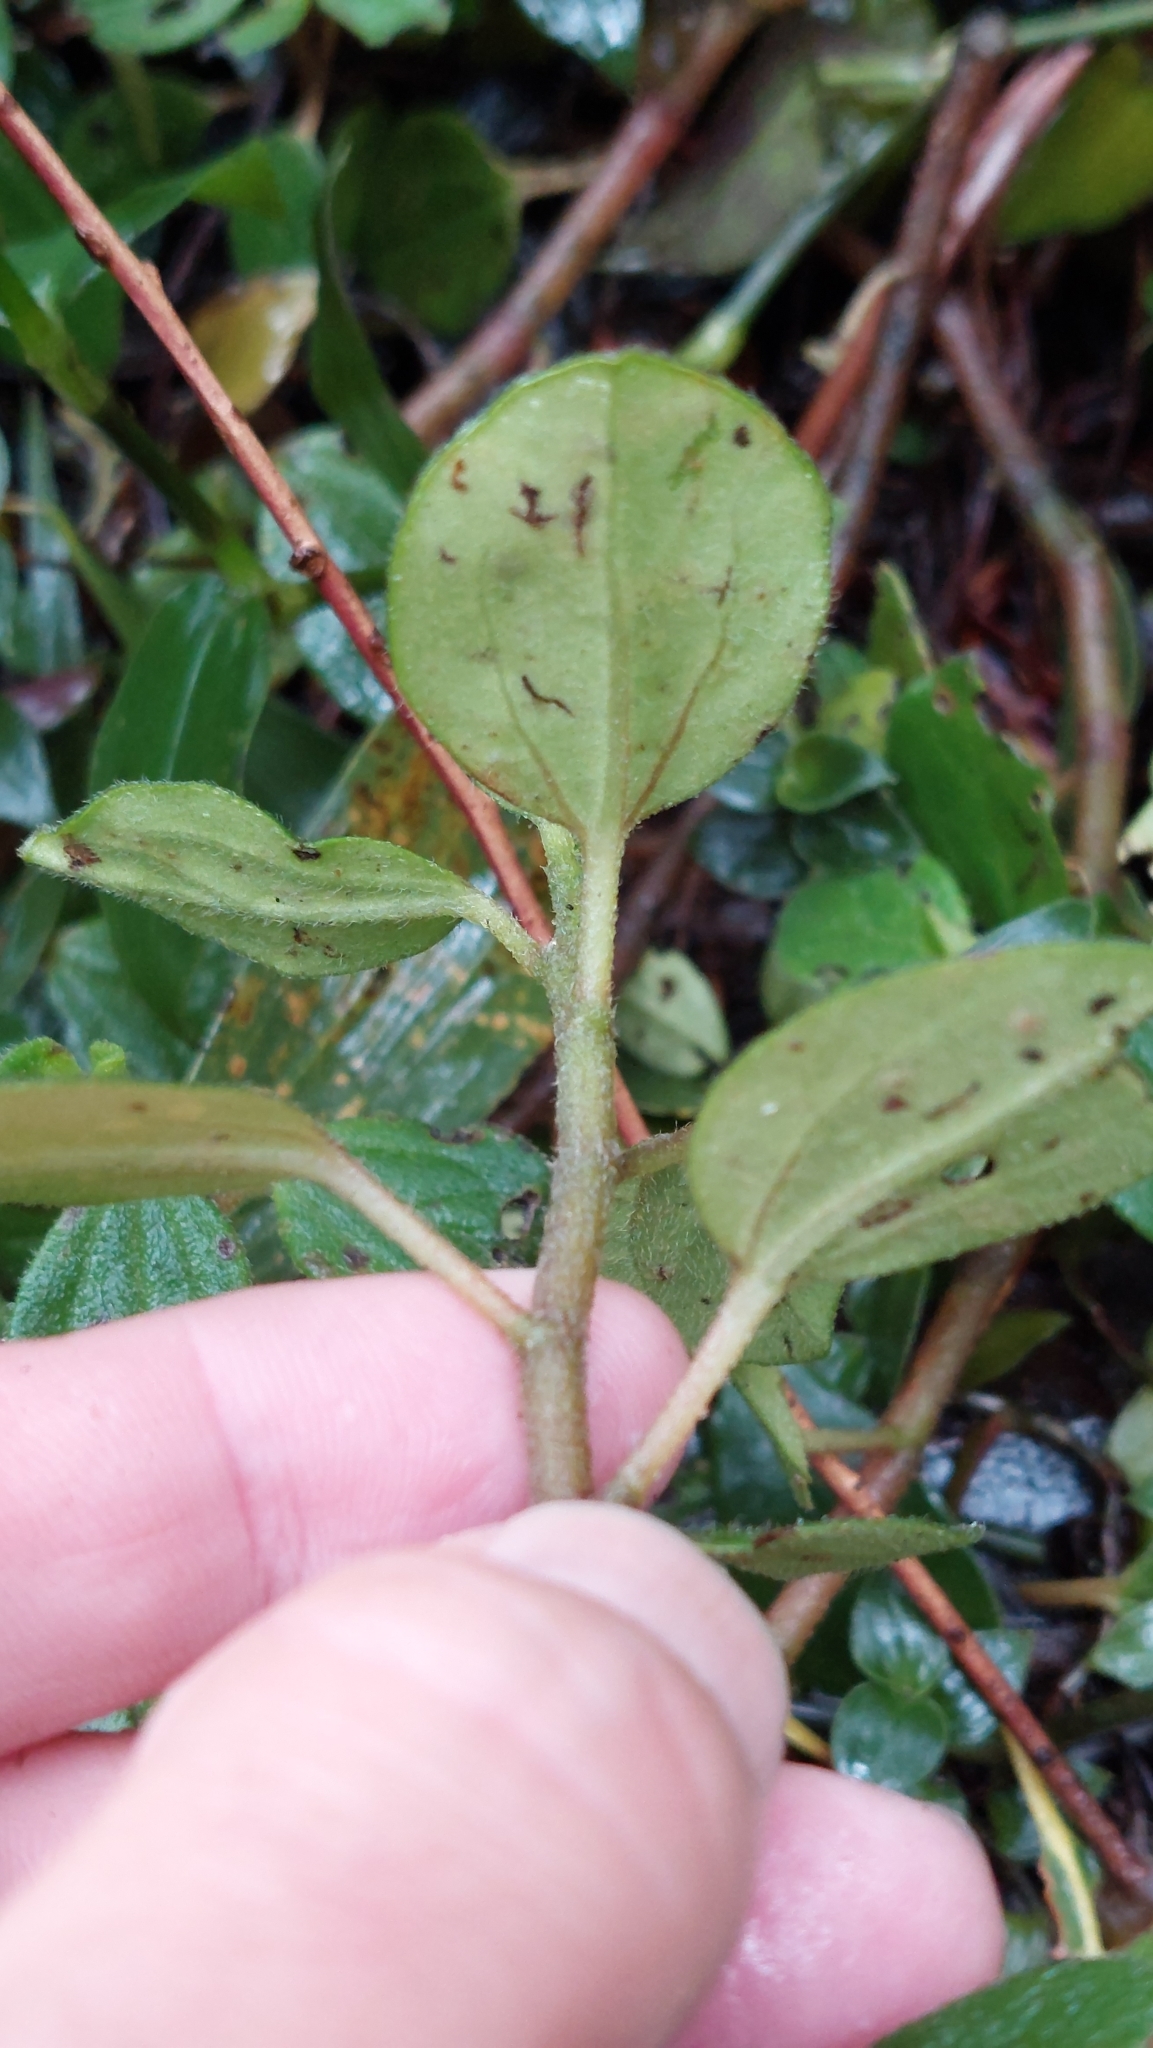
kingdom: Plantae
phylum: Tracheophyta
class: Magnoliopsida
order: Piperales
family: Piperaceae
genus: Peperomia
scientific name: Peperomia tequendamana
